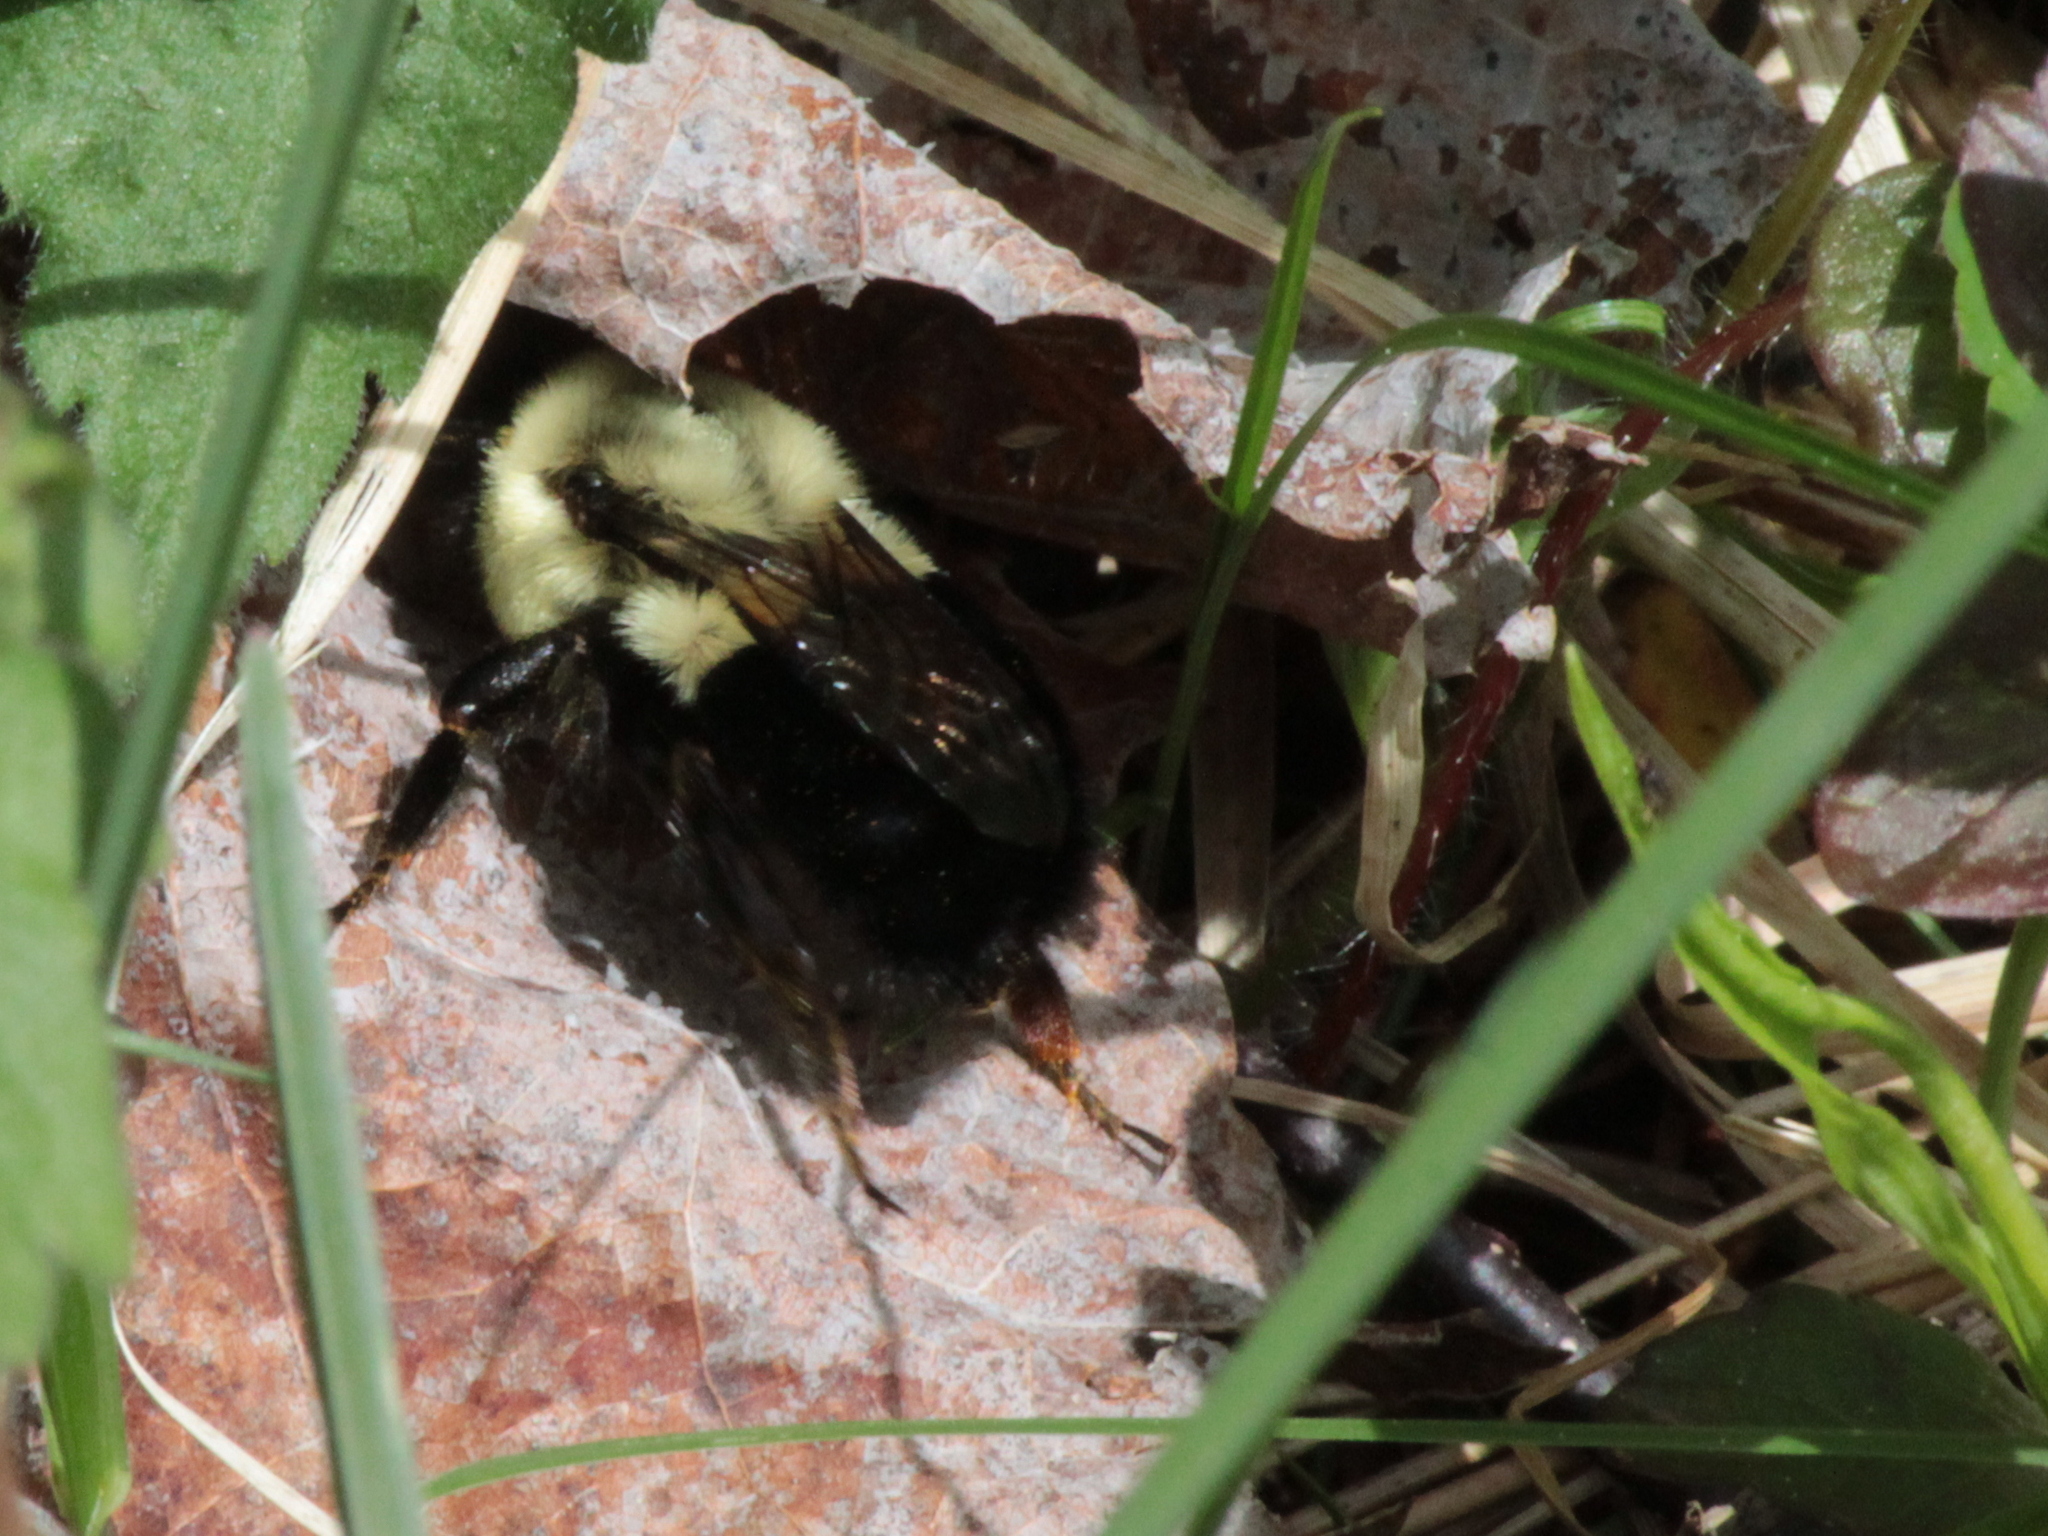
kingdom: Animalia
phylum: Arthropoda
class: Insecta
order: Hymenoptera
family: Apidae
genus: Bombus
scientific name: Bombus impatiens
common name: Common eastern bumble bee
